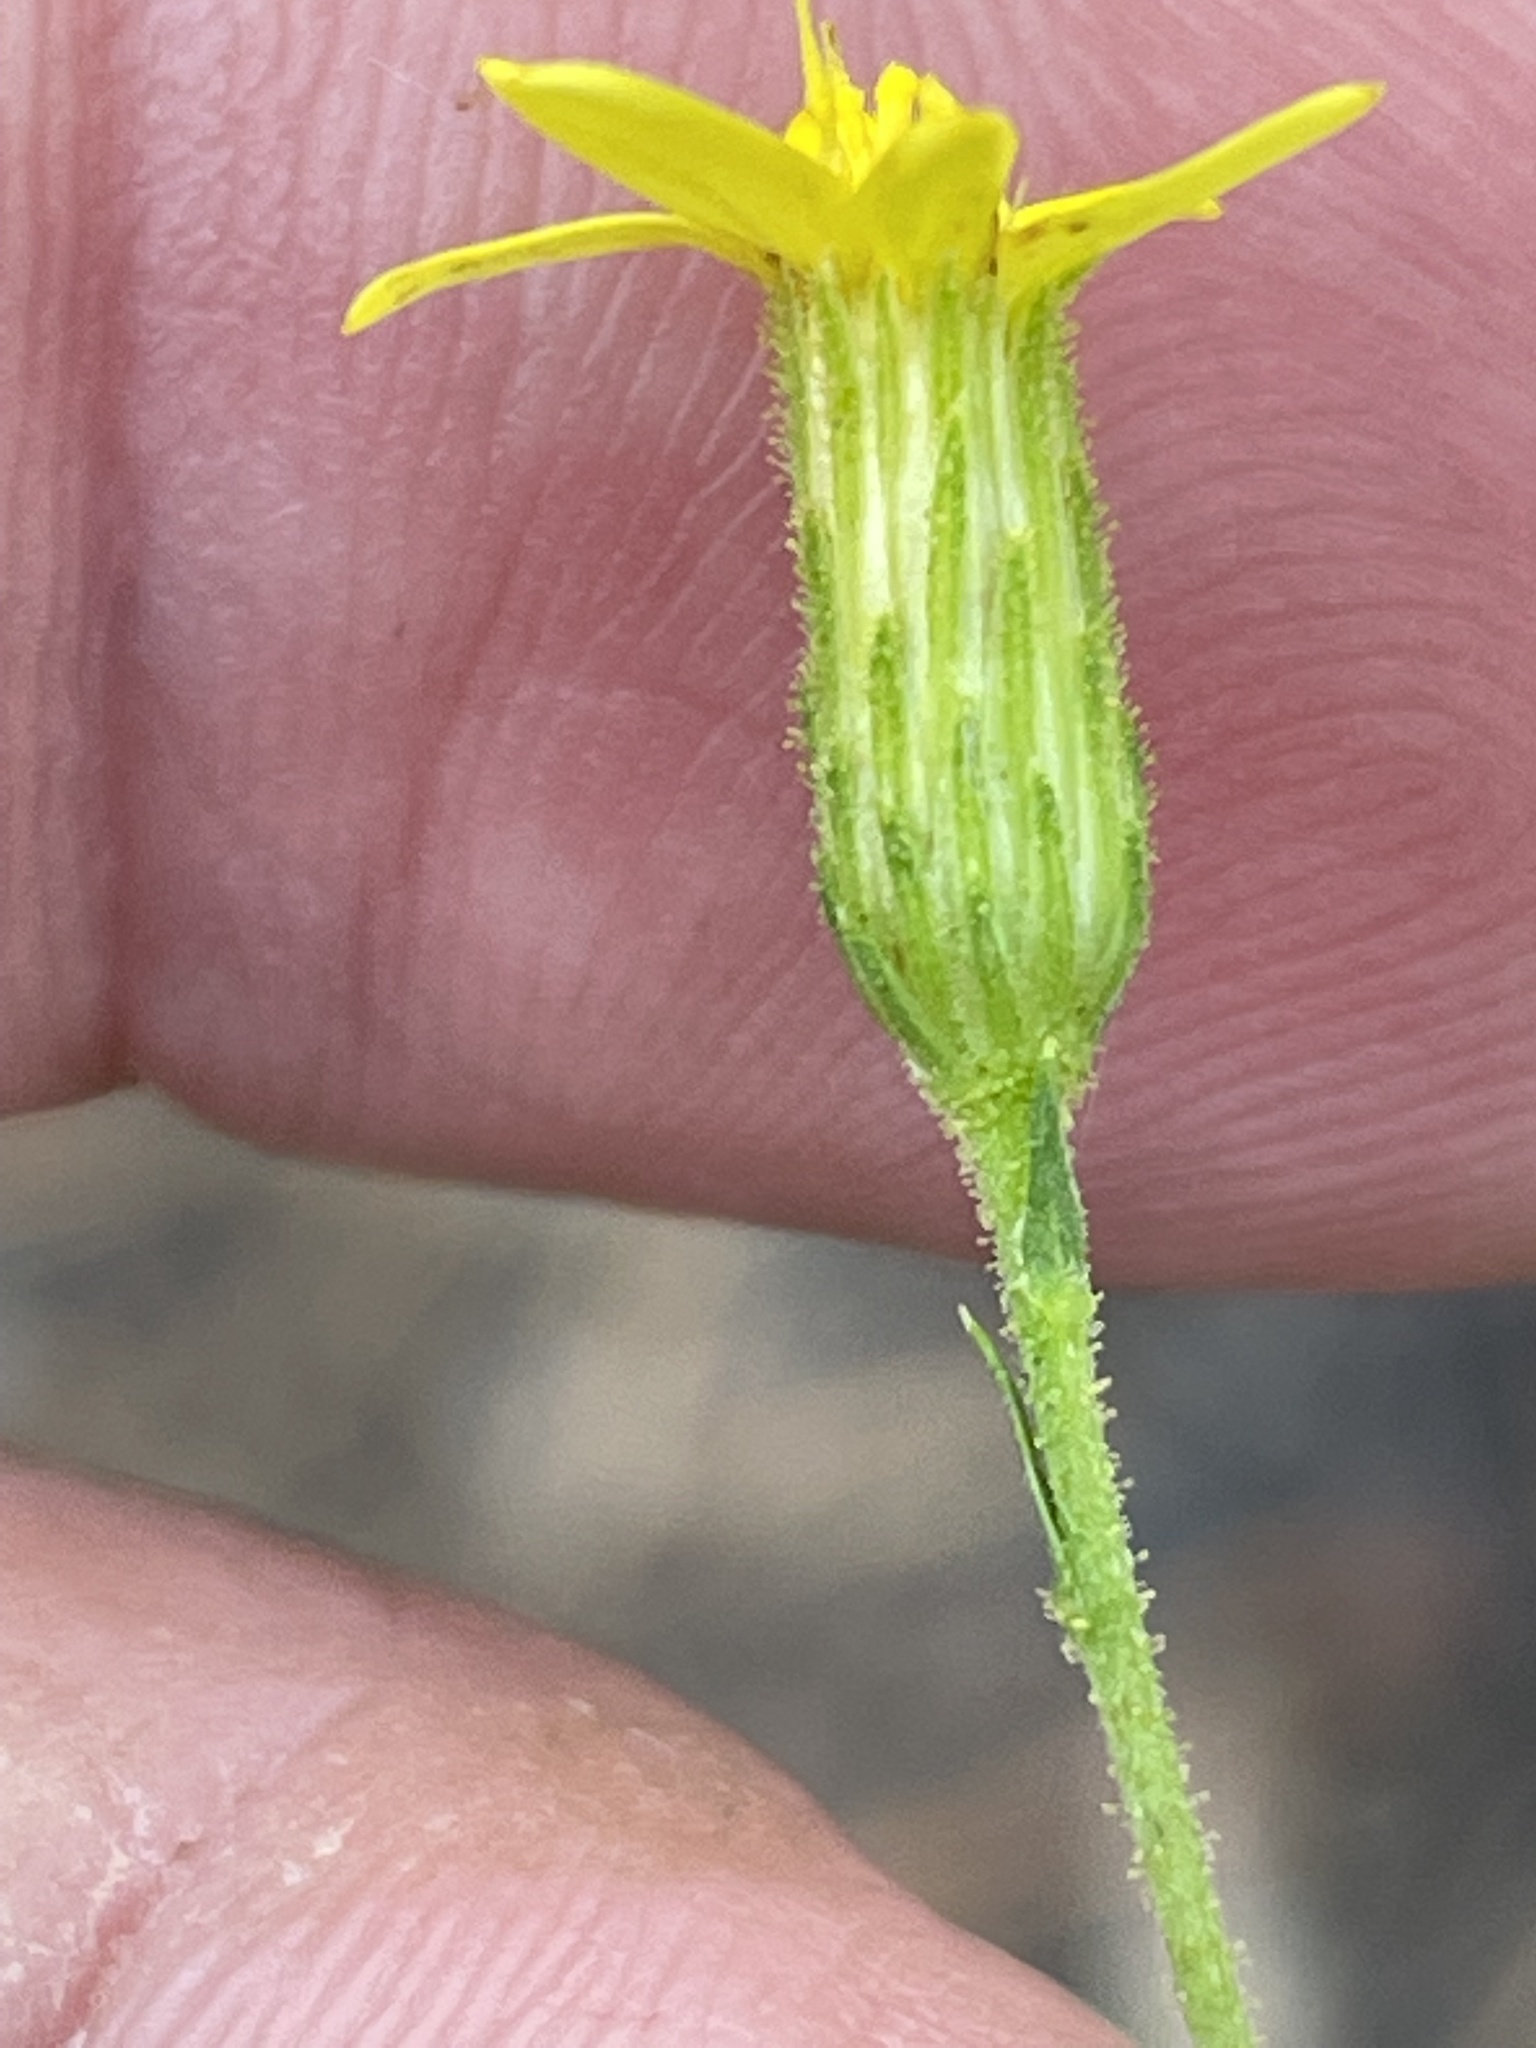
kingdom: Plantae
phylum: Tracheophyta
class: Magnoliopsida
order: Asterales
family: Asteraceae
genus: Pityopsis
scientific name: Pityopsis aspera
